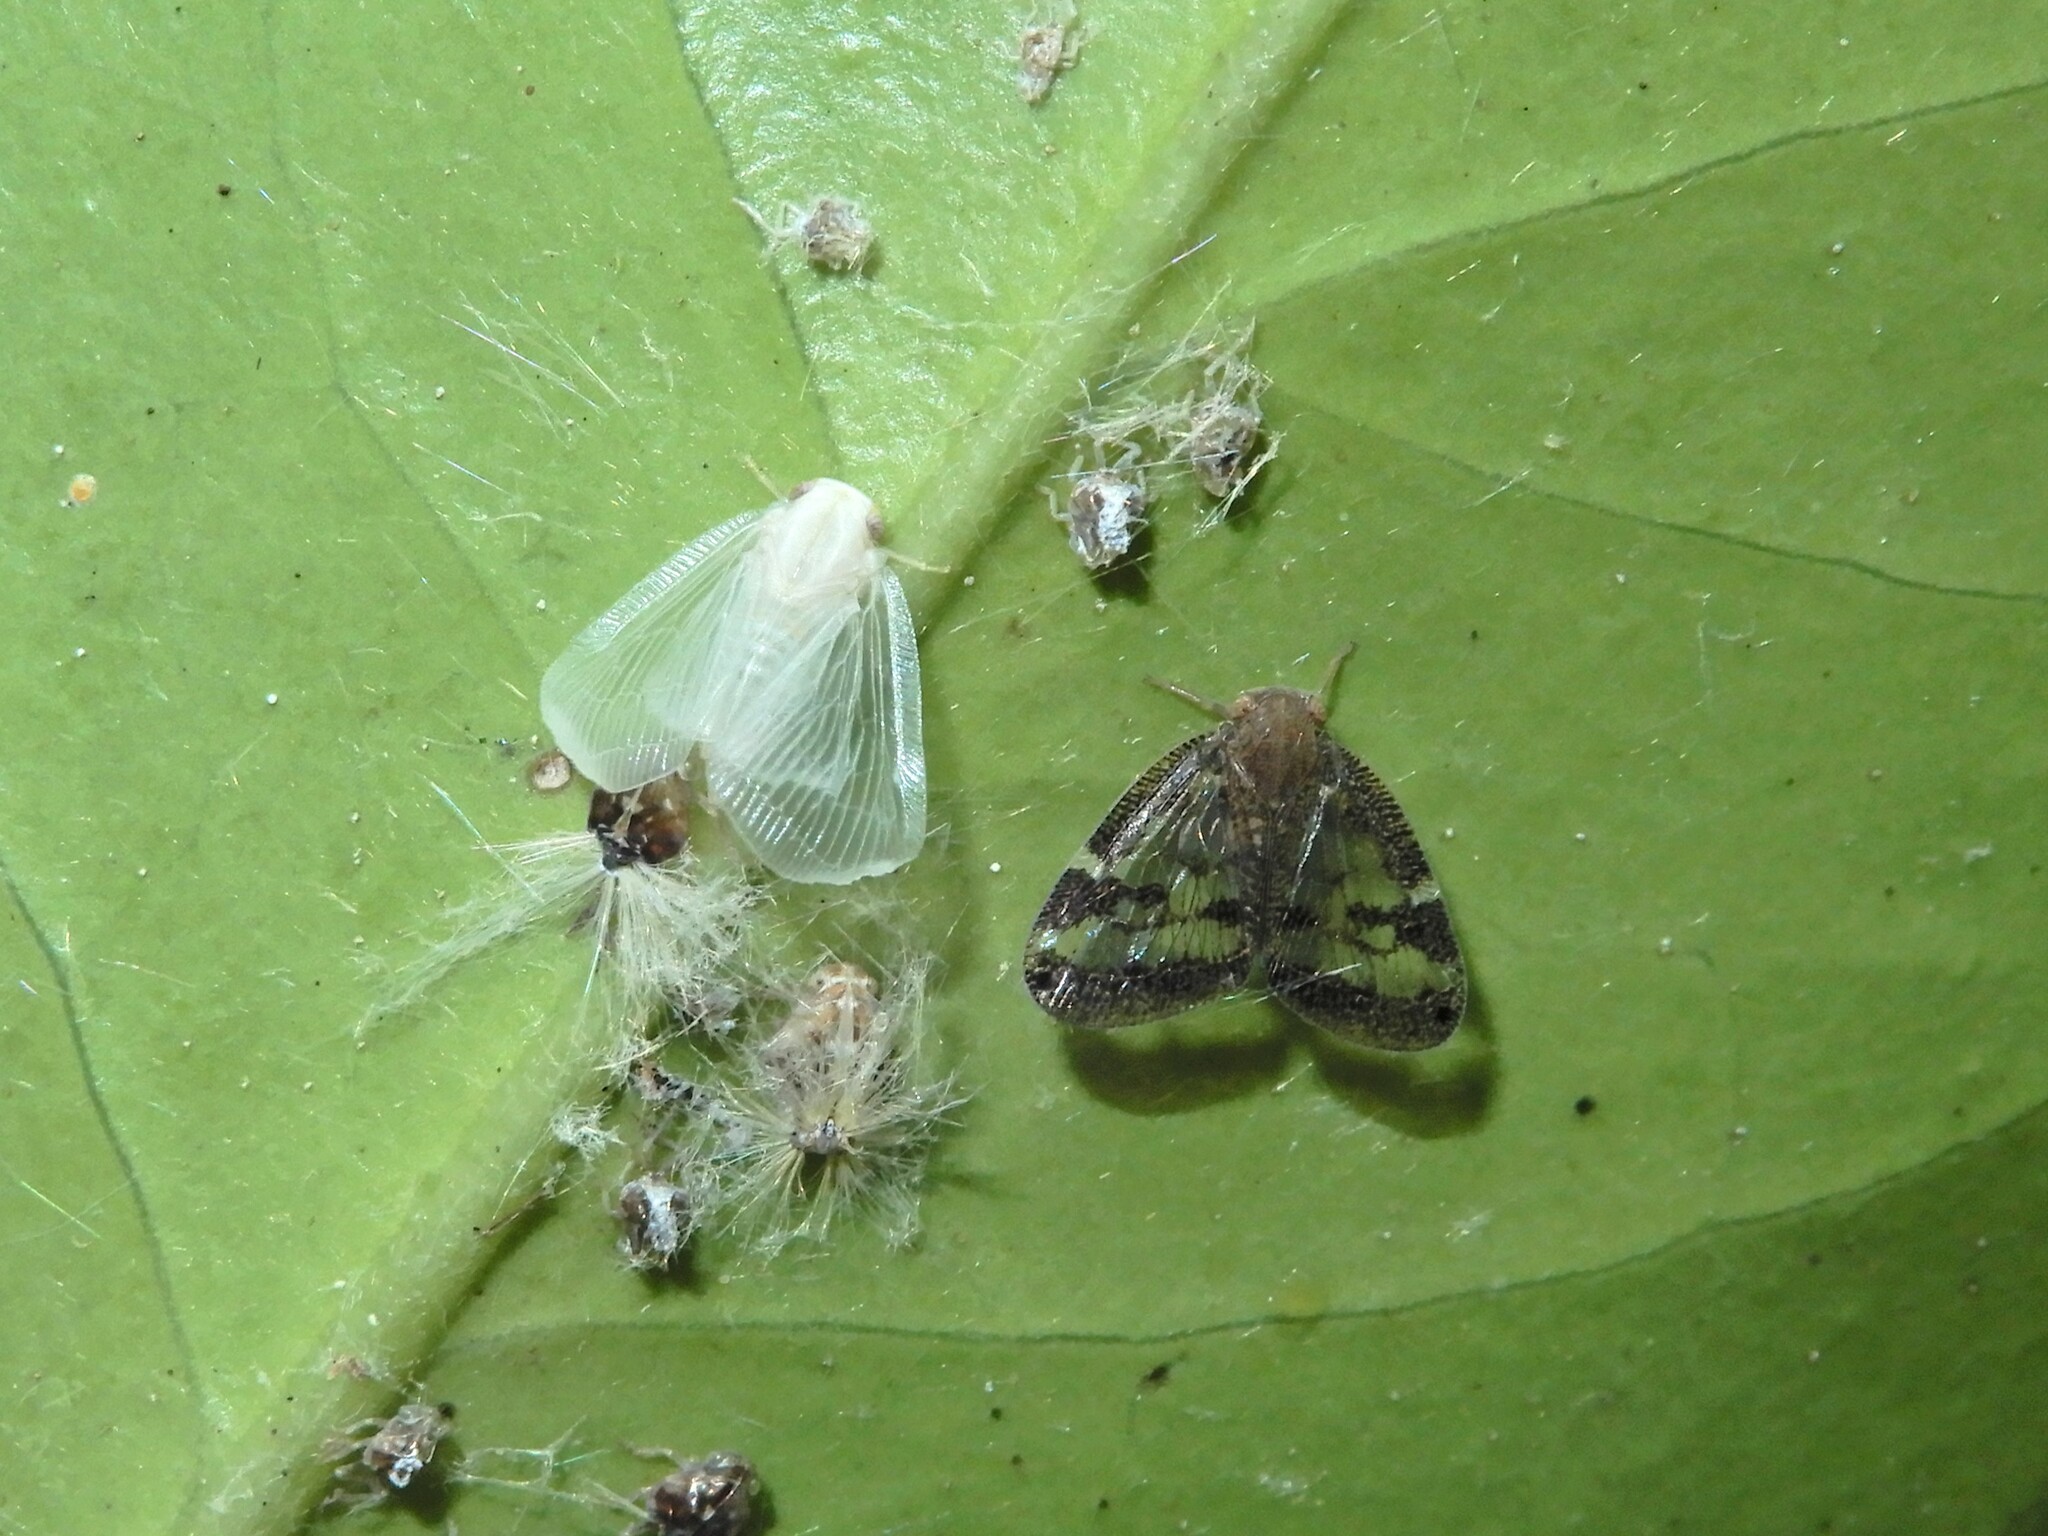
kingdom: Animalia
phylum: Arthropoda
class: Insecta
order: Hemiptera
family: Ricaniidae
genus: Scolypopa
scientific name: Scolypopa australis
